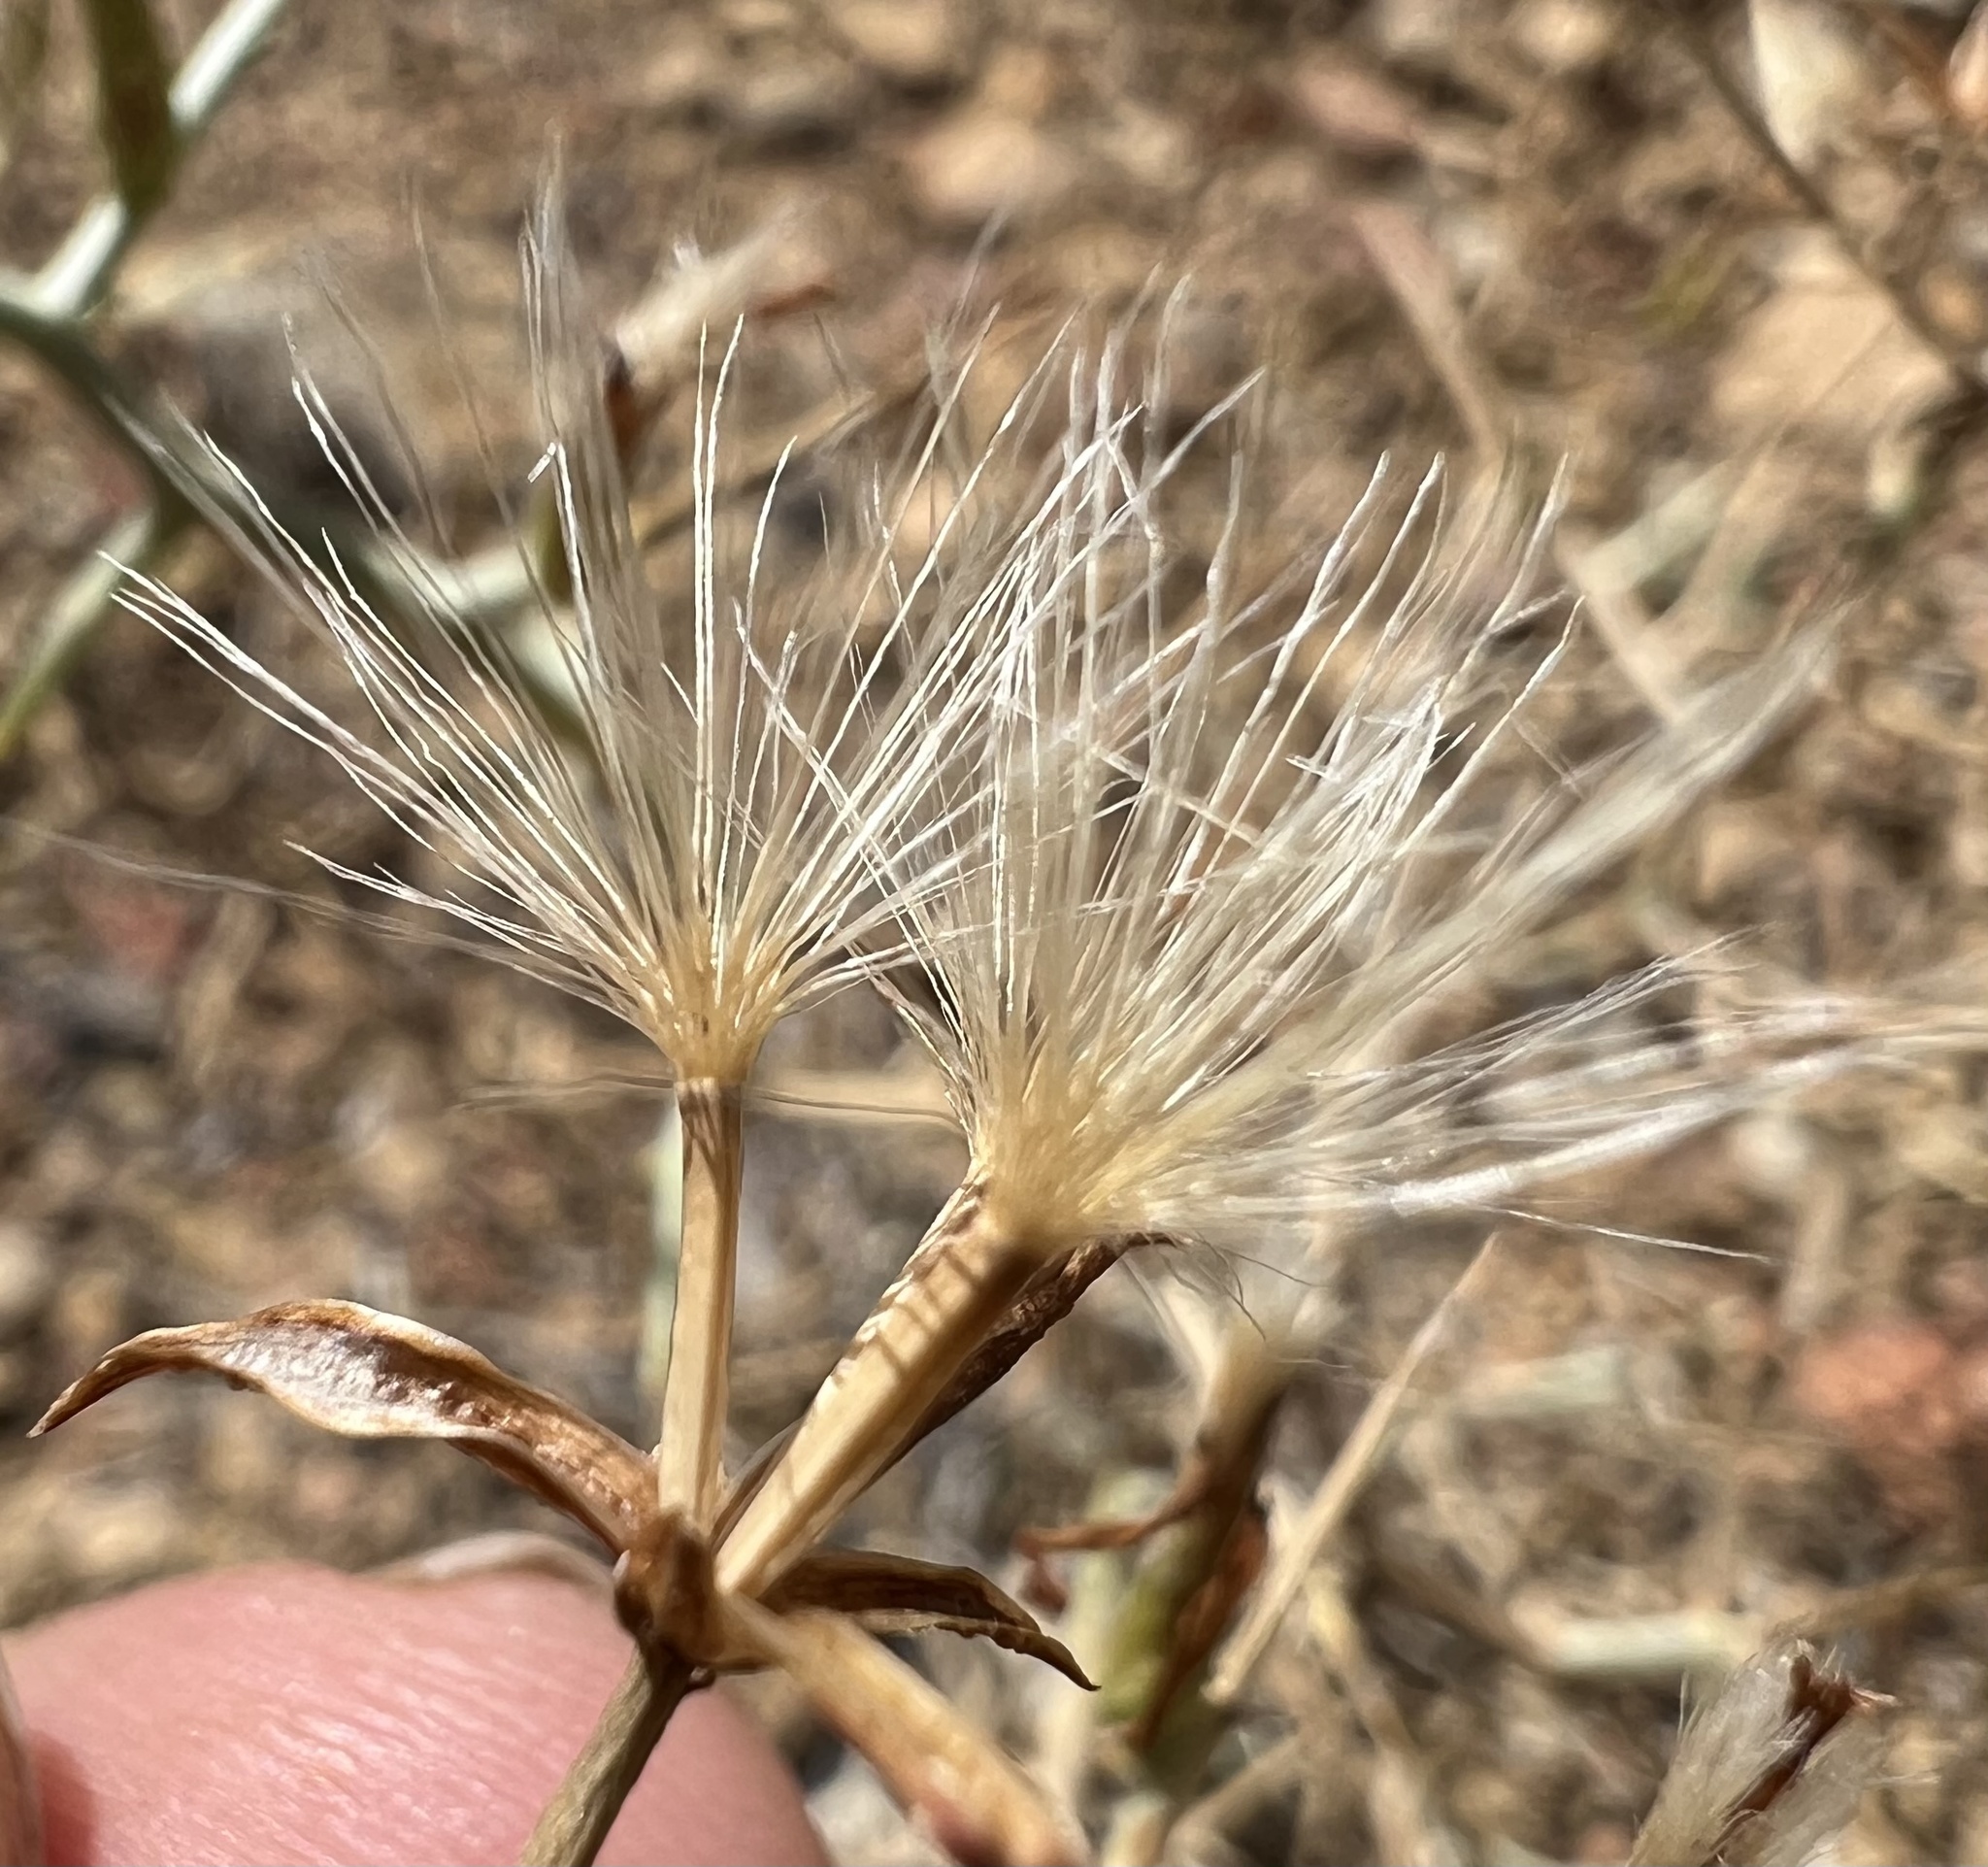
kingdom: Plantae
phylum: Tracheophyta
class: Magnoliopsida
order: Asterales
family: Asteraceae
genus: Pleiacanthus
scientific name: Pleiacanthus spinosus
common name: Thorny skeleton-weed
